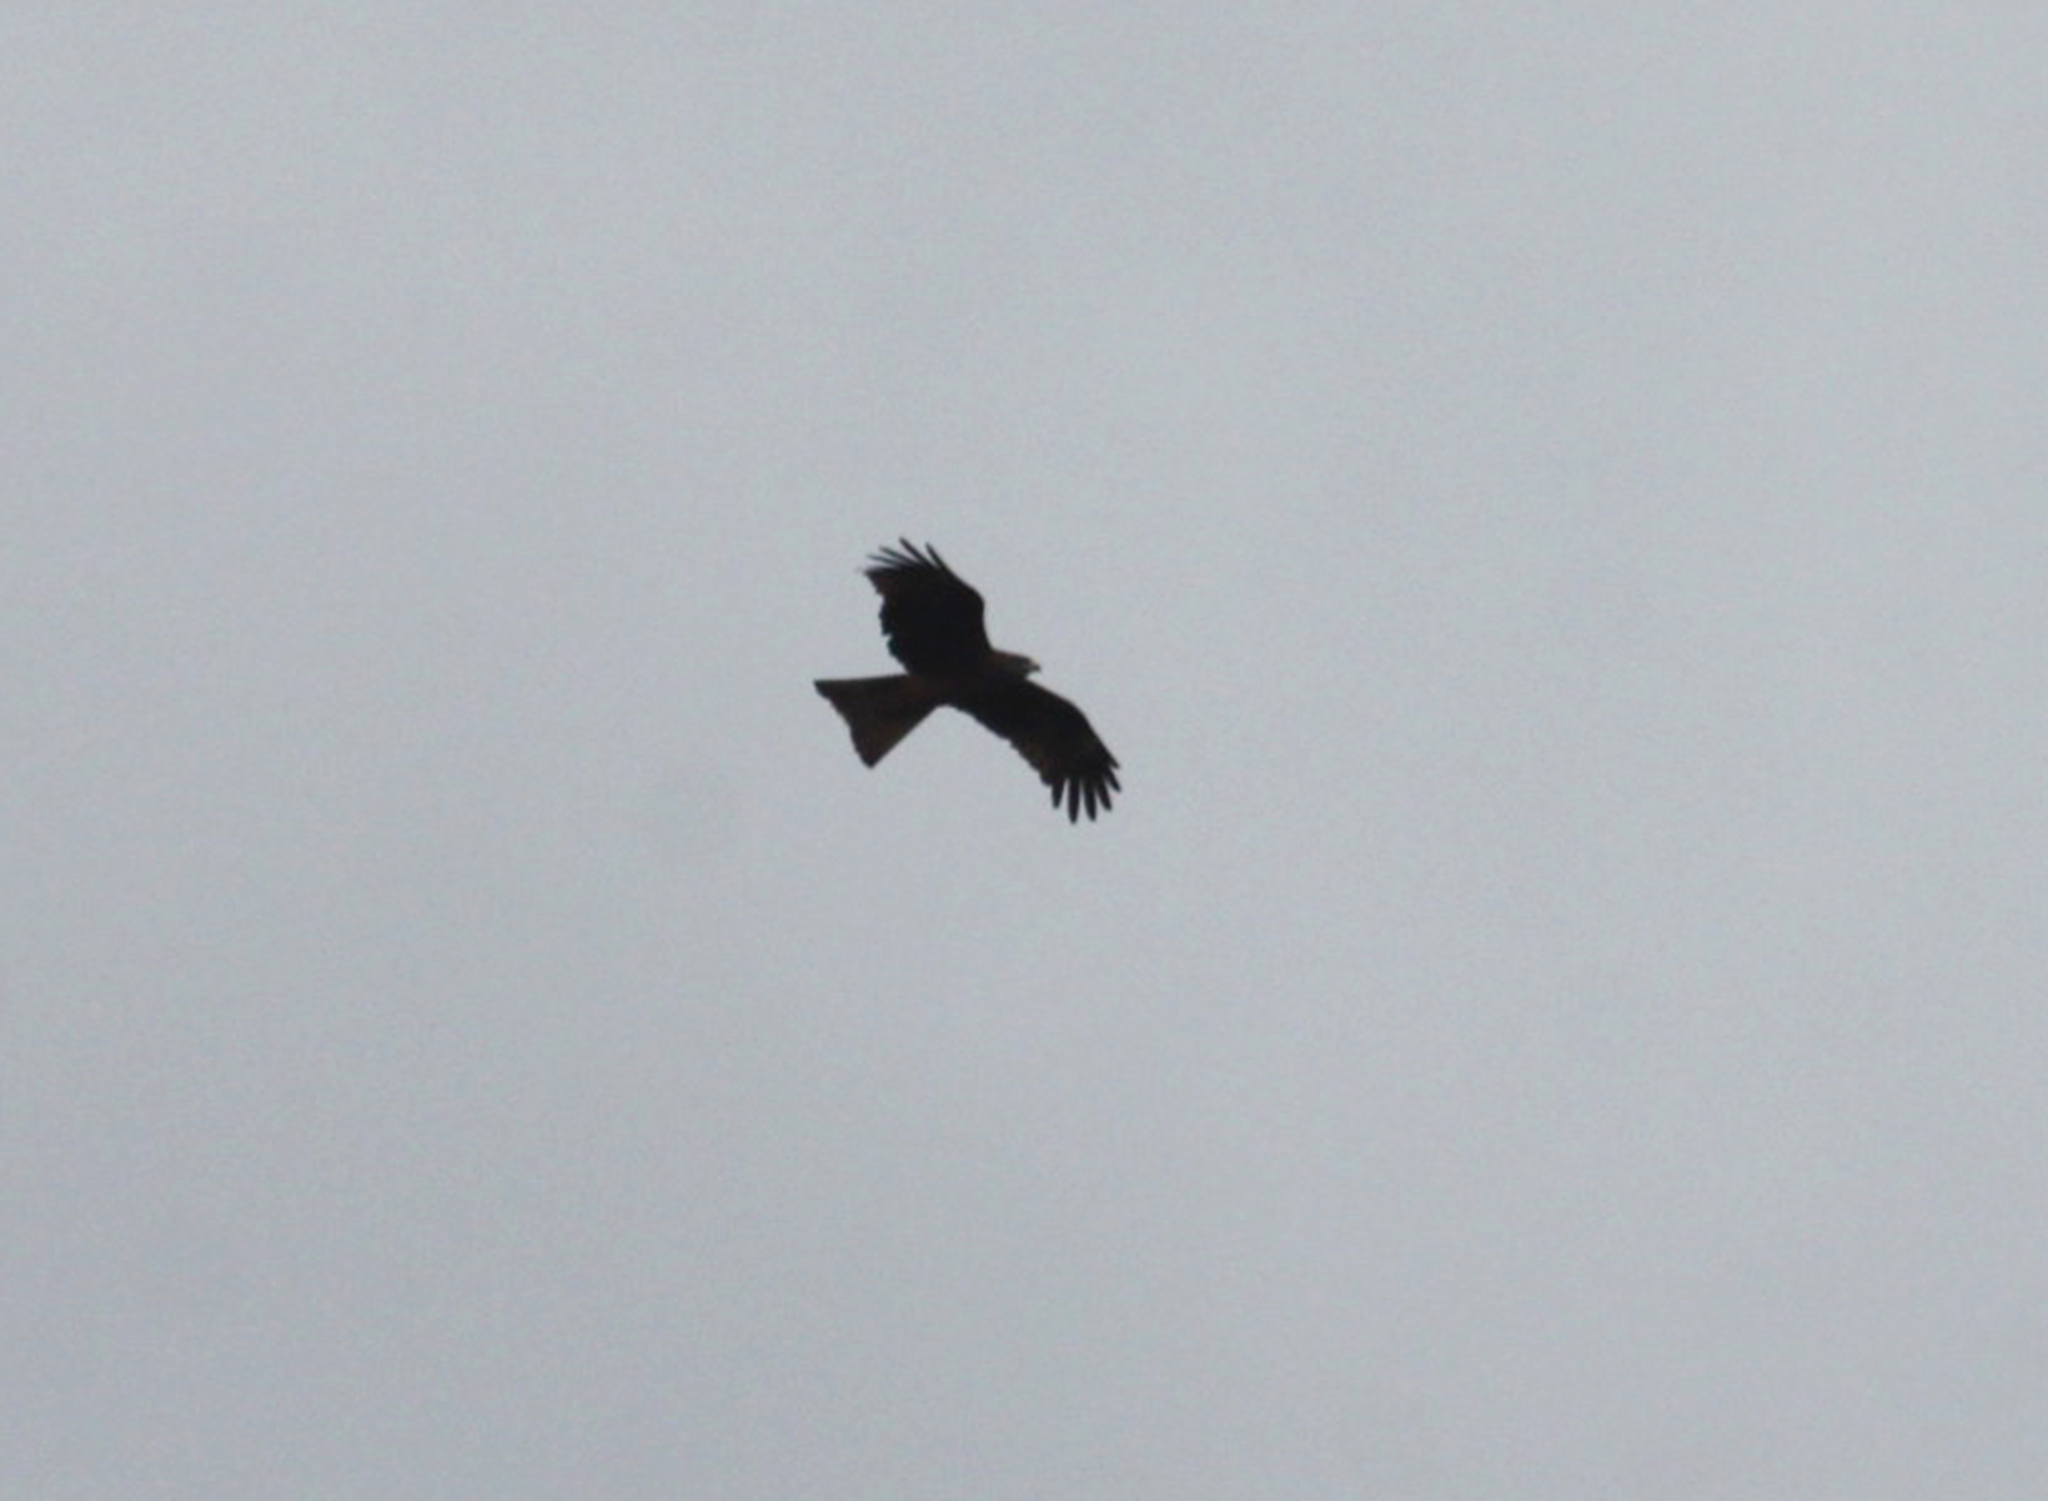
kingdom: Animalia
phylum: Chordata
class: Aves
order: Accipitriformes
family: Accipitridae
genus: Milvus
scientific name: Milvus migrans
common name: Black kite
